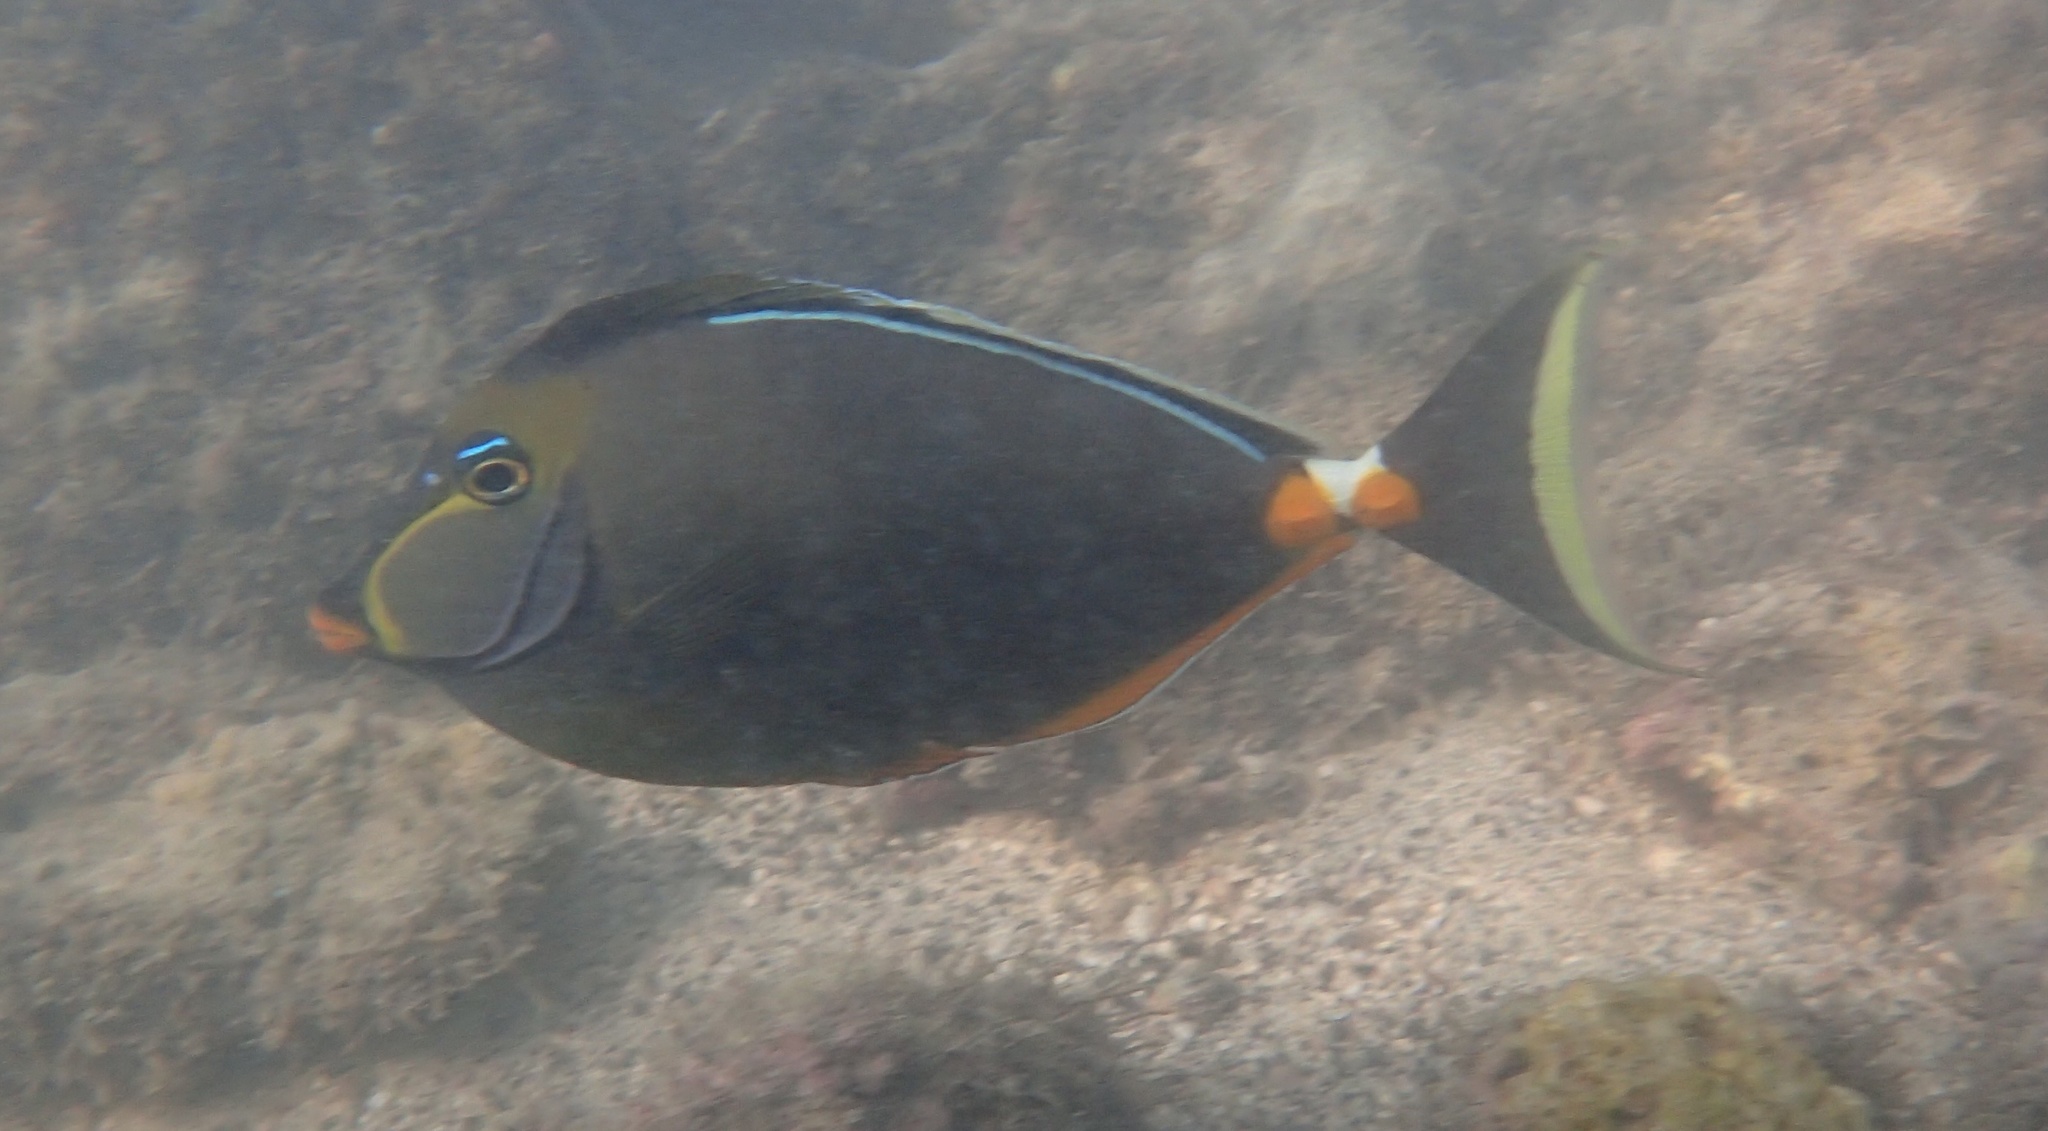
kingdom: Animalia
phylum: Chordata
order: Perciformes
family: Acanthuridae
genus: Naso
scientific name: Naso lituratus
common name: Orangespine unicornfish
